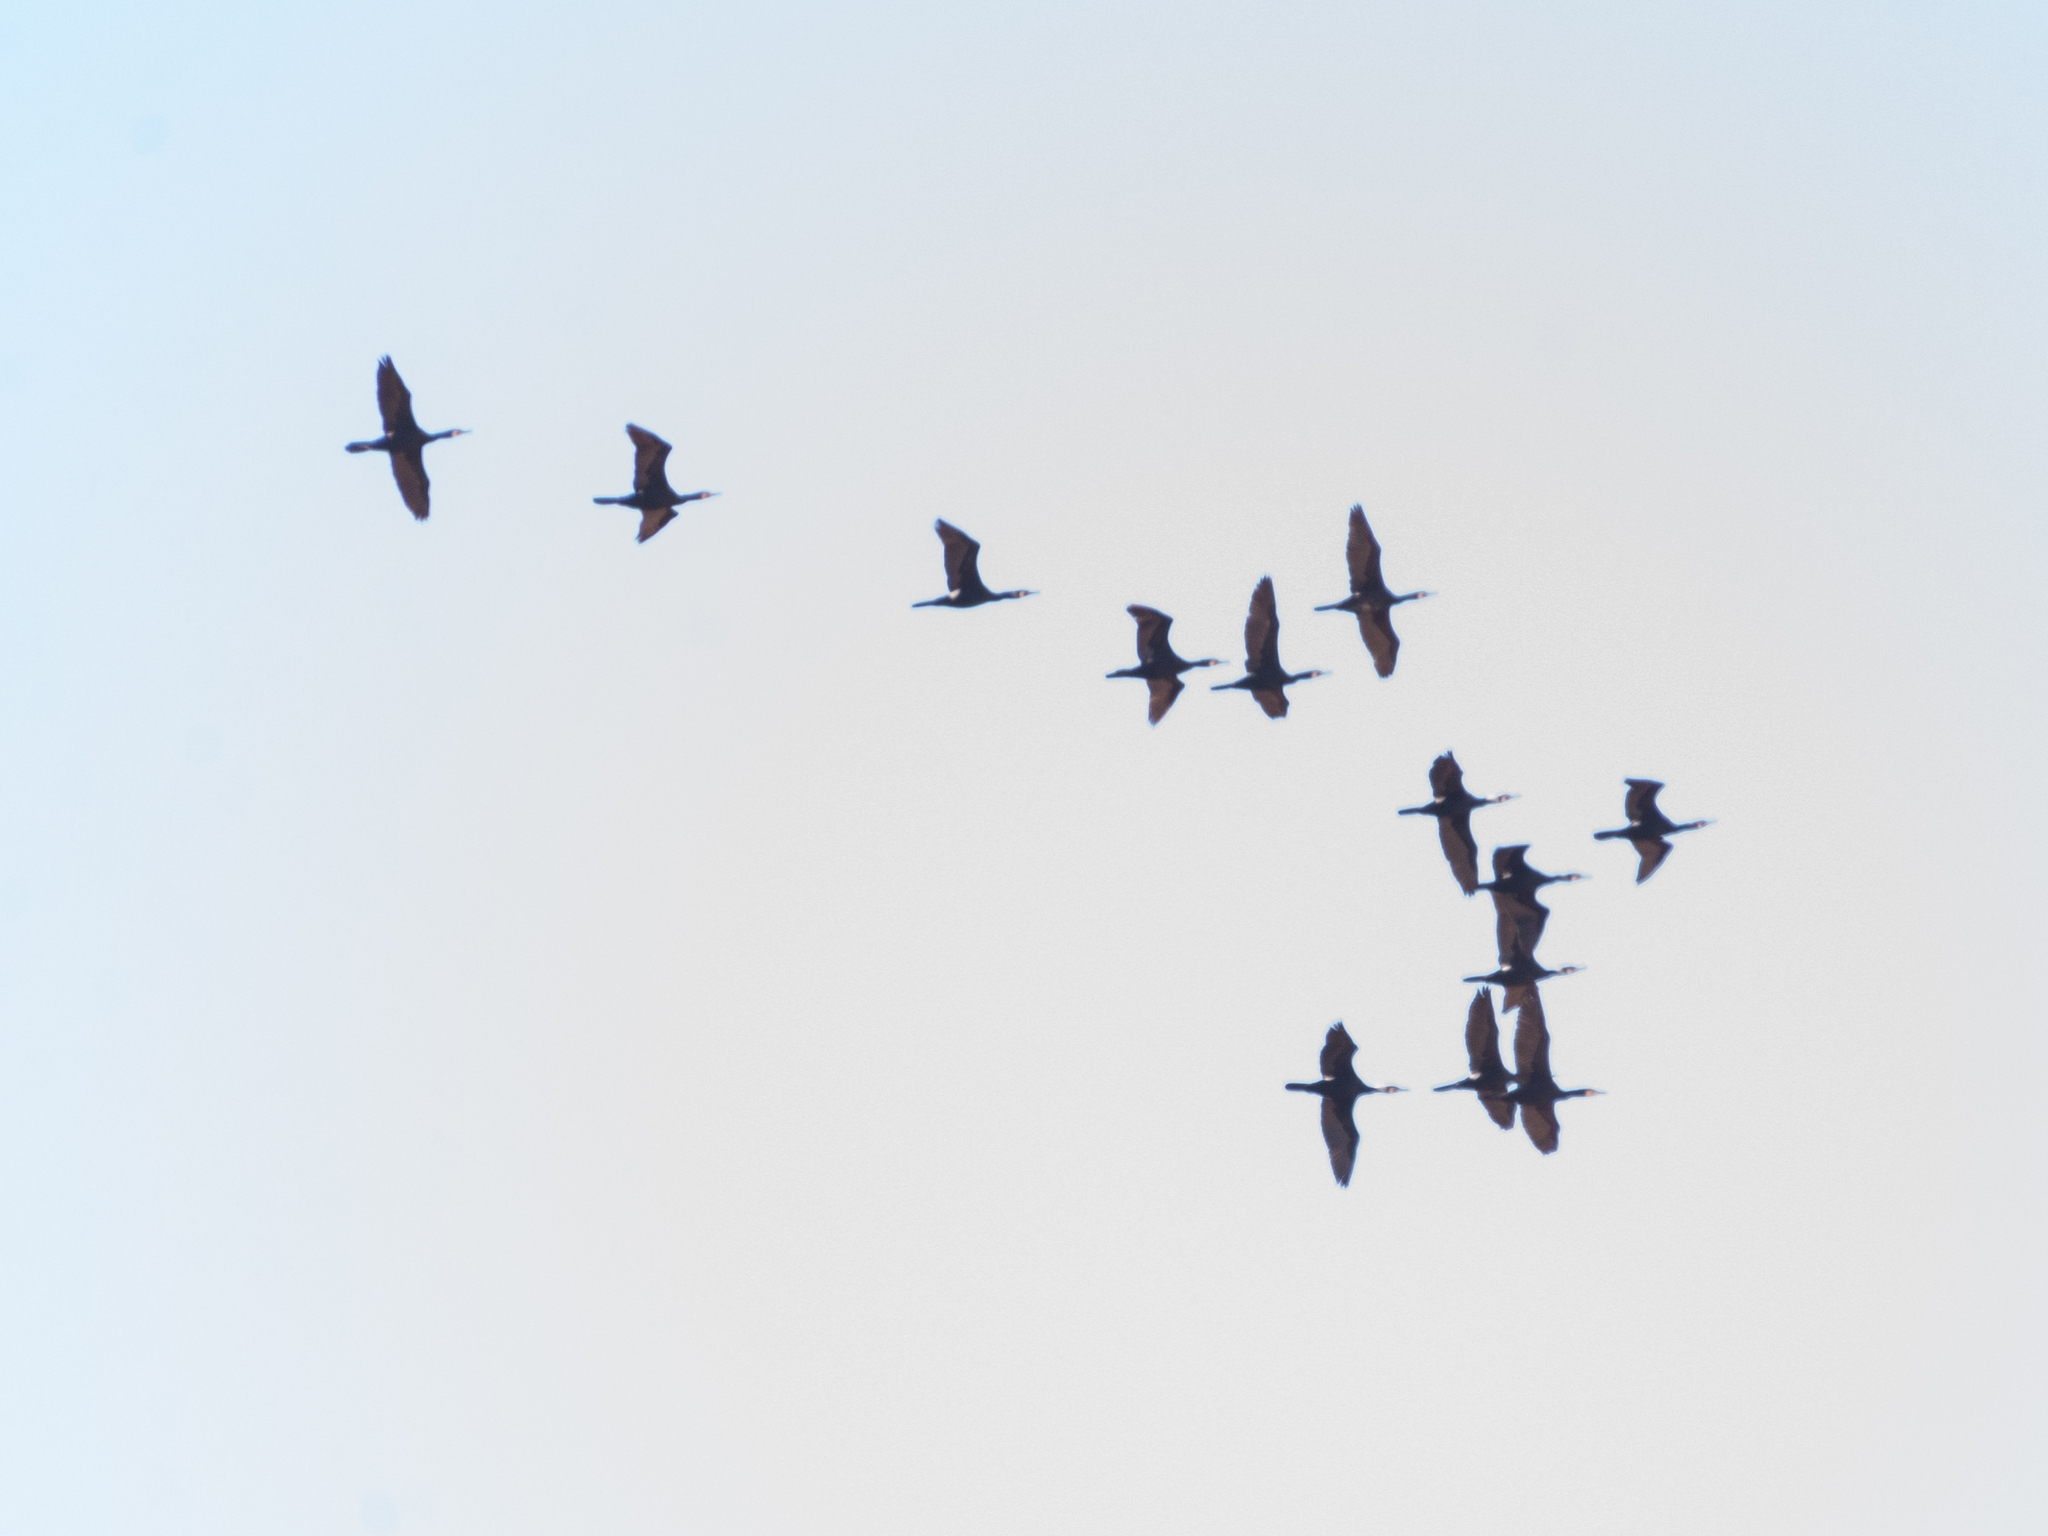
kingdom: Animalia
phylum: Chordata
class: Aves
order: Suliformes
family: Phalacrocoracidae
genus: Phalacrocorax
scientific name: Phalacrocorax carbo
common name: Great cormorant
